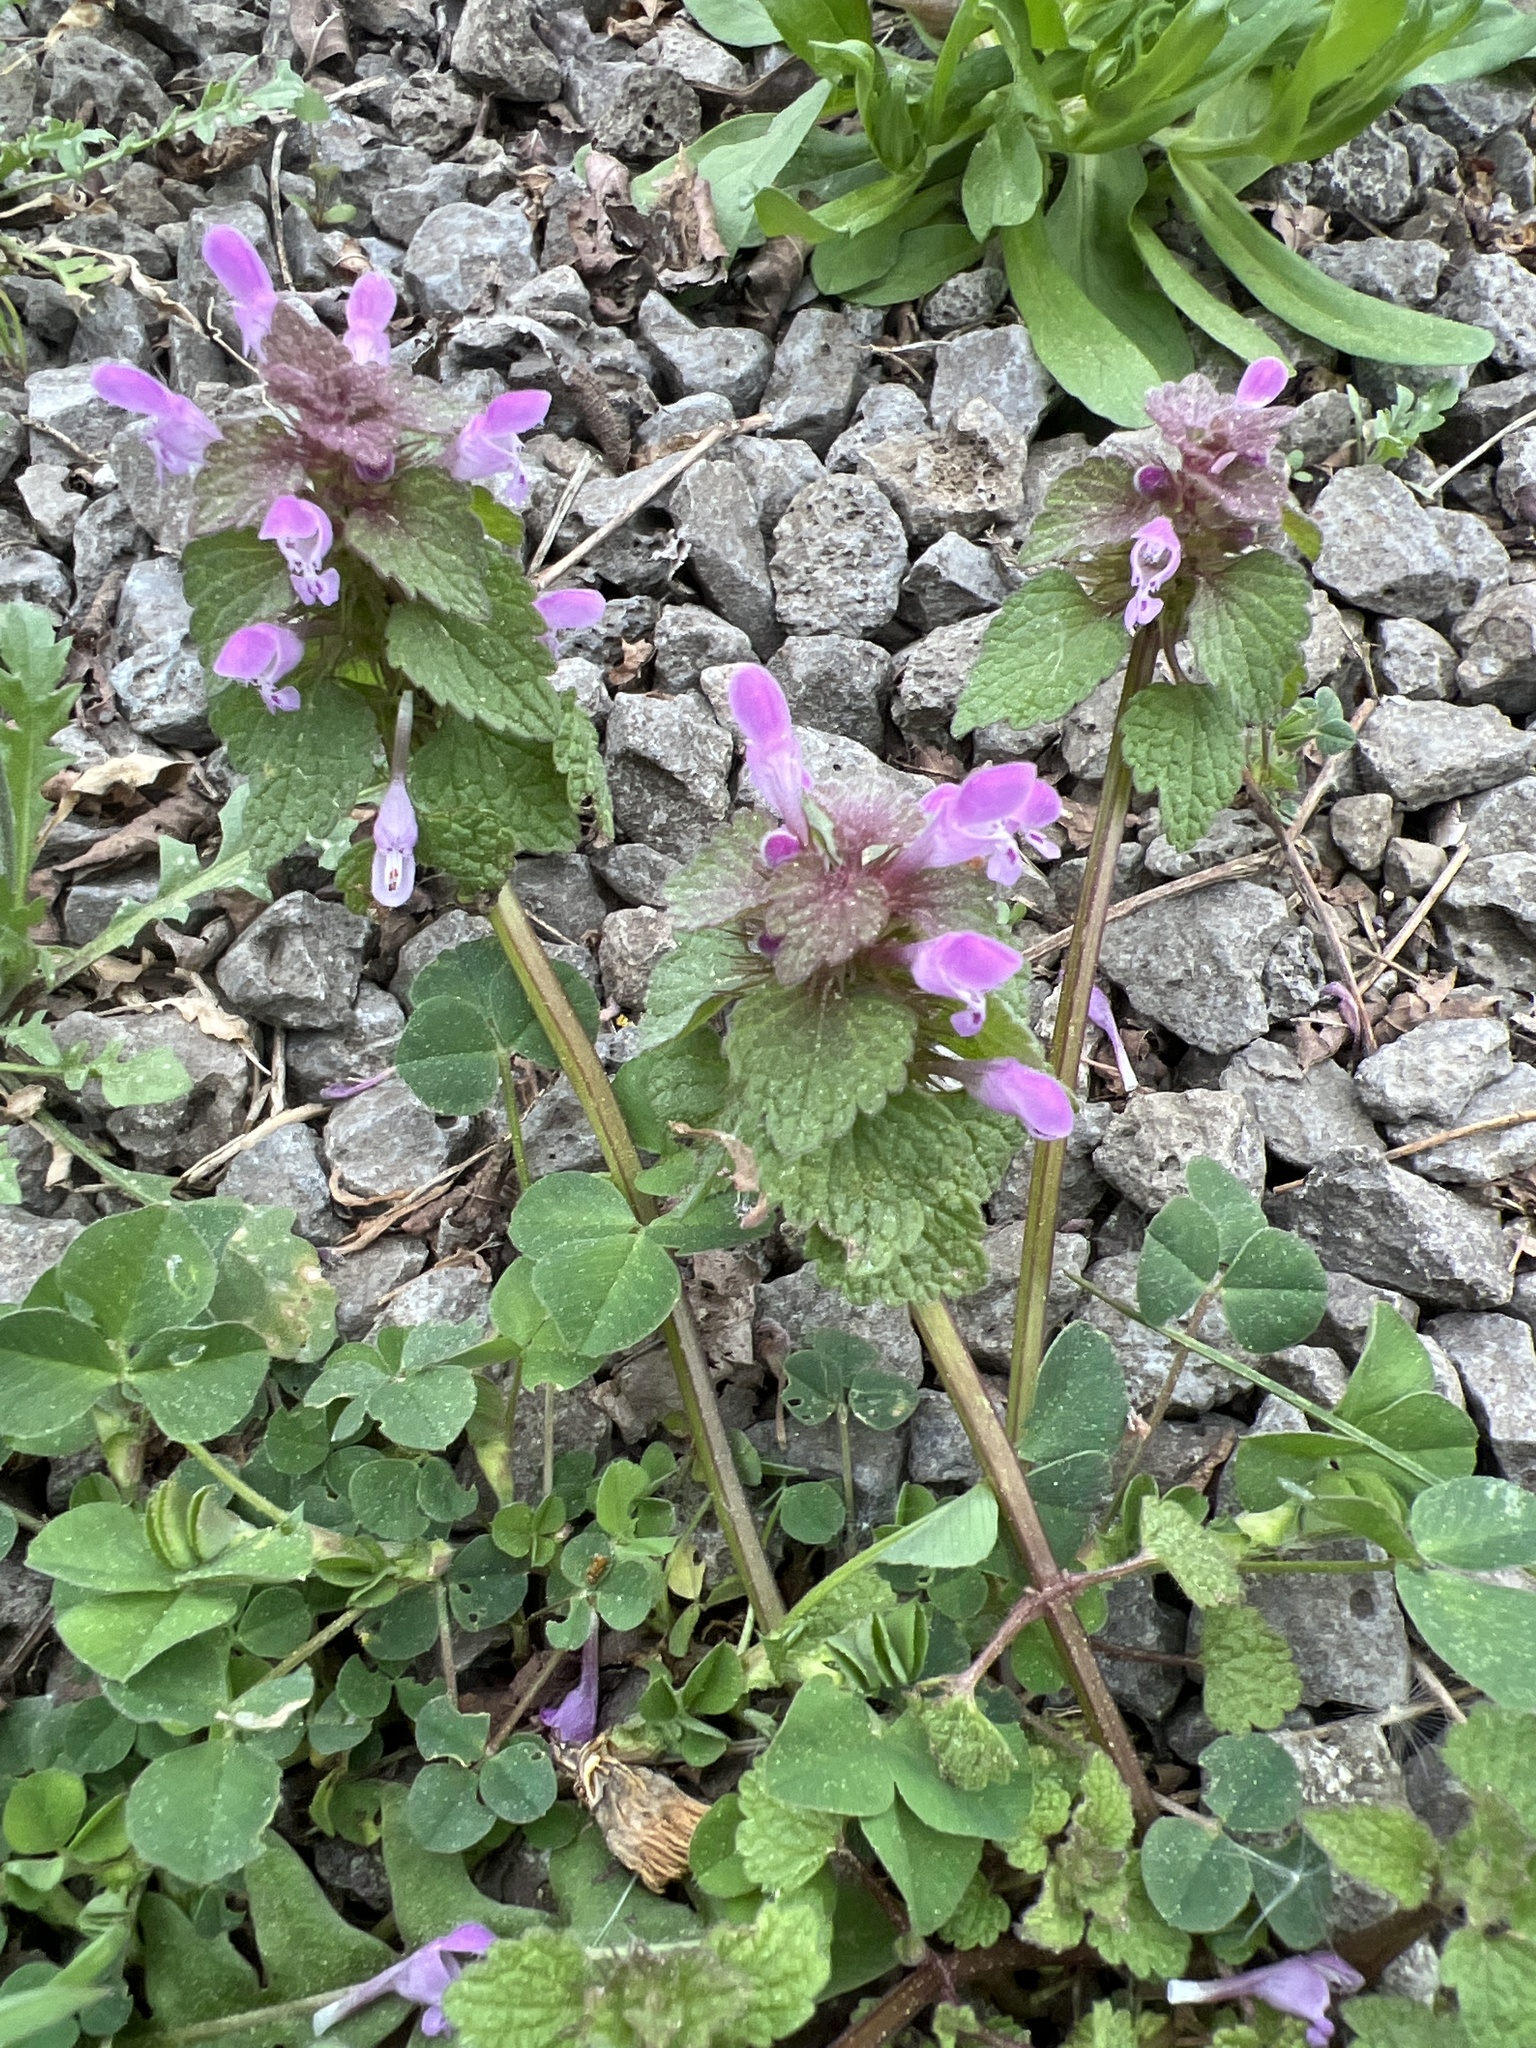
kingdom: Plantae
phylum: Tracheophyta
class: Magnoliopsida
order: Lamiales
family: Lamiaceae
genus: Lamium
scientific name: Lamium purpureum
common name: Red dead-nettle
